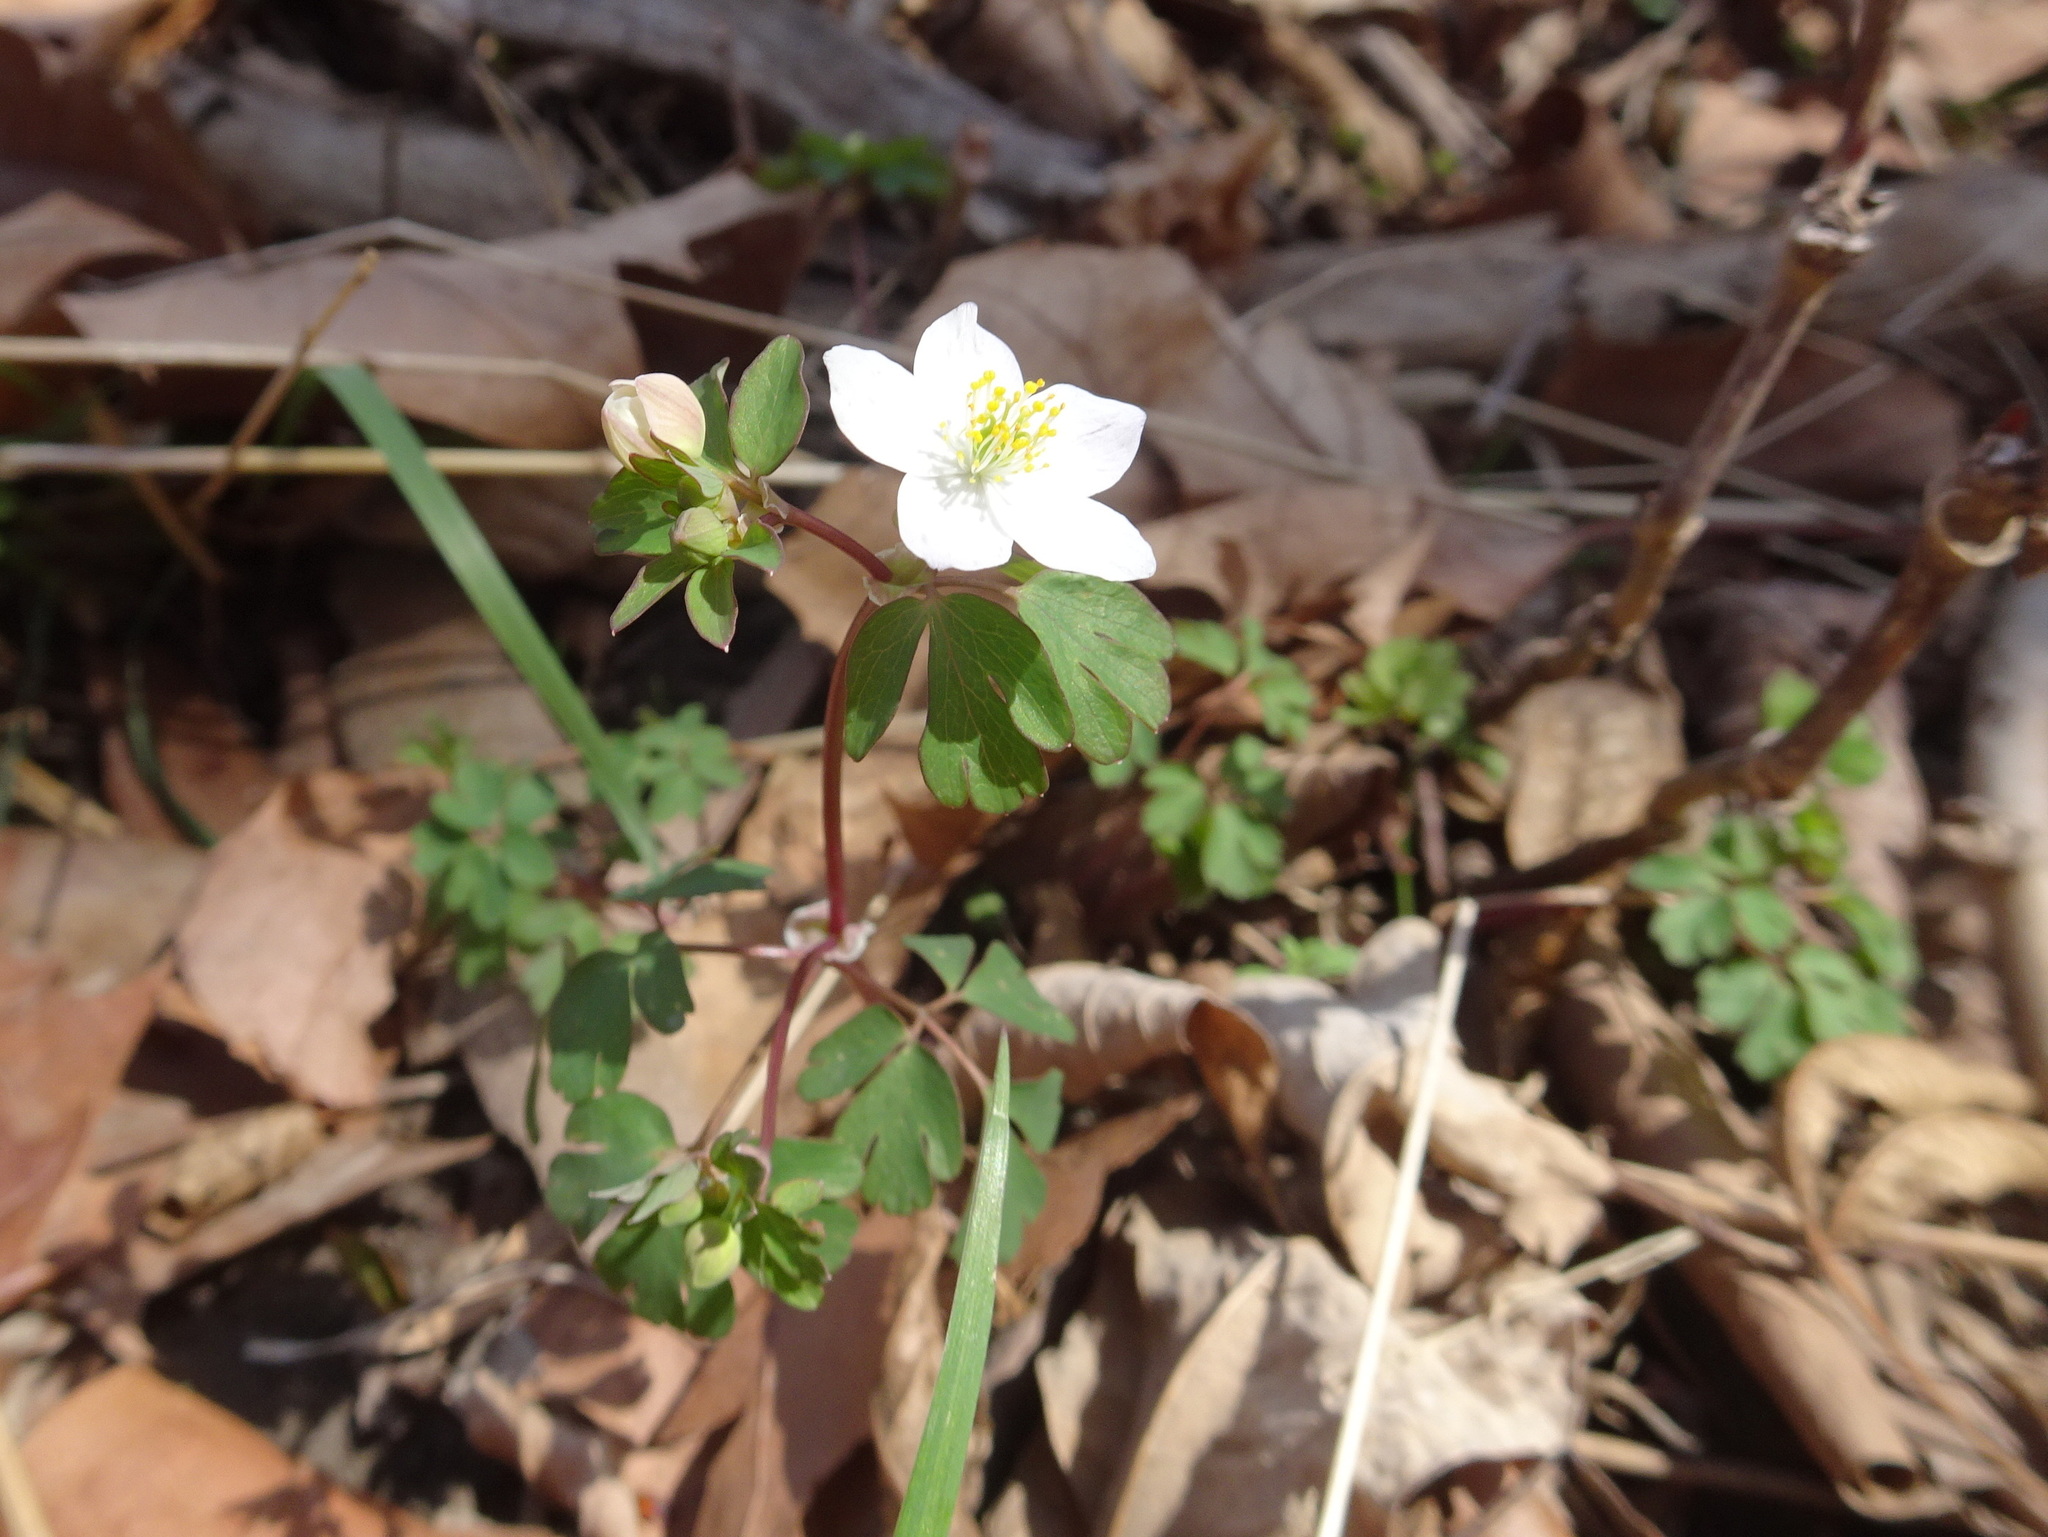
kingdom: Plantae
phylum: Tracheophyta
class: Magnoliopsida
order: Ranunculales
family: Ranunculaceae
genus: Enemion
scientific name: Enemion biternatum
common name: Eastern false rue-anemone
